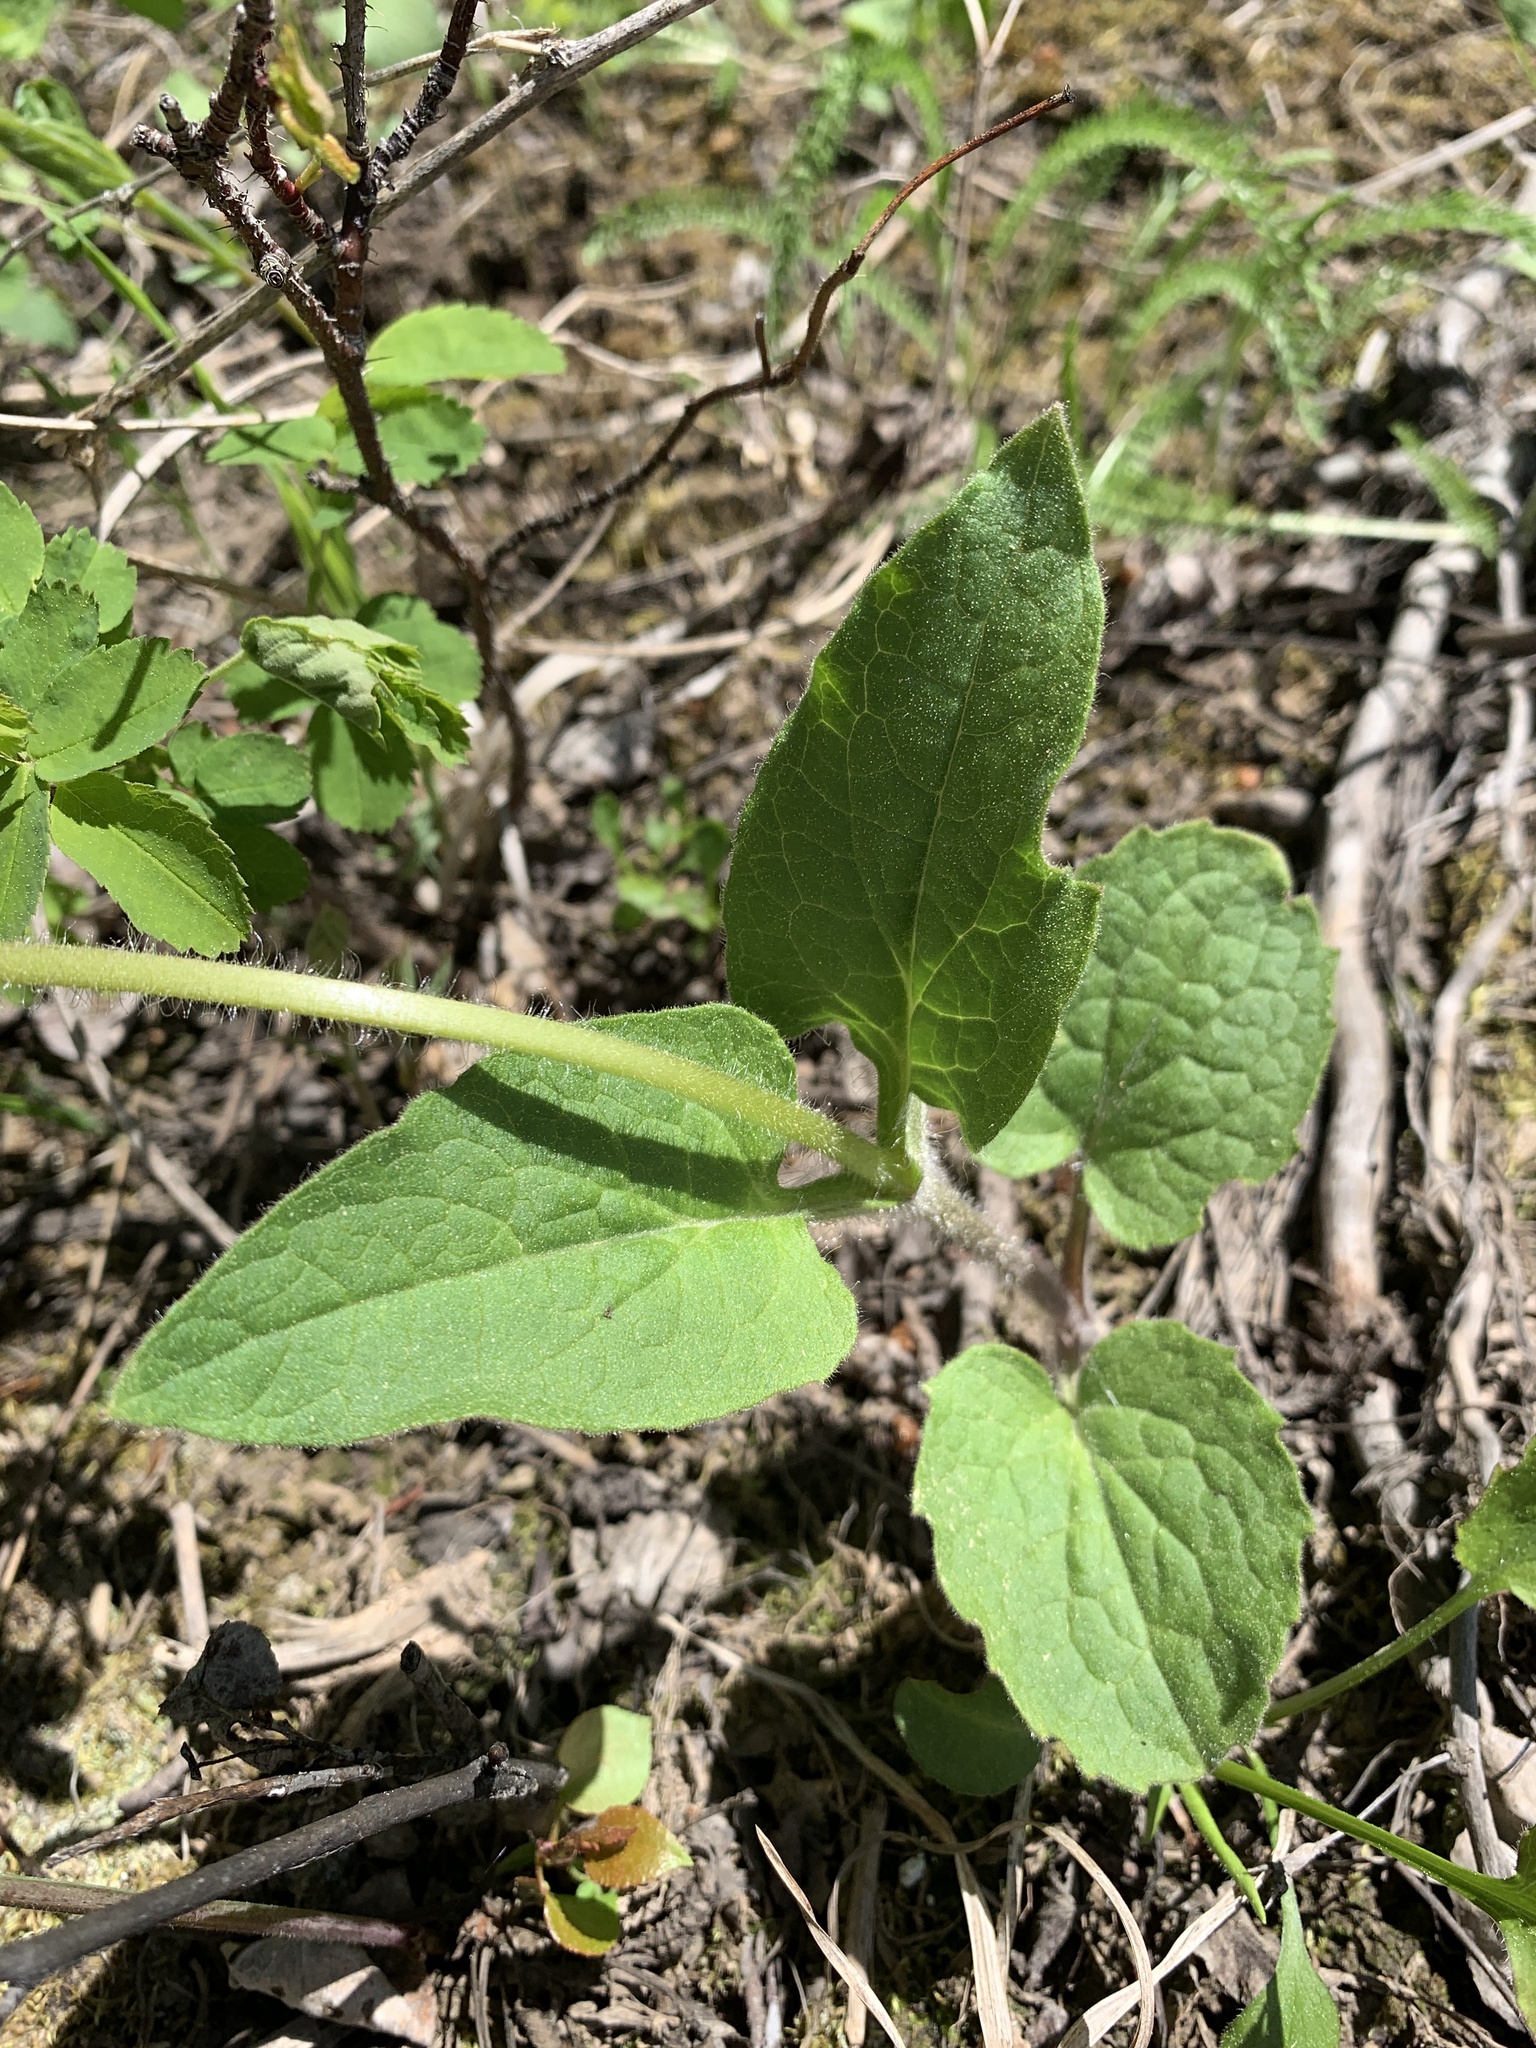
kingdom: Plantae
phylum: Tracheophyta
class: Magnoliopsida
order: Asterales
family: Asteraceae
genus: Arnica
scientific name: Arnica cordifolia
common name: Heart-leaf arnica
